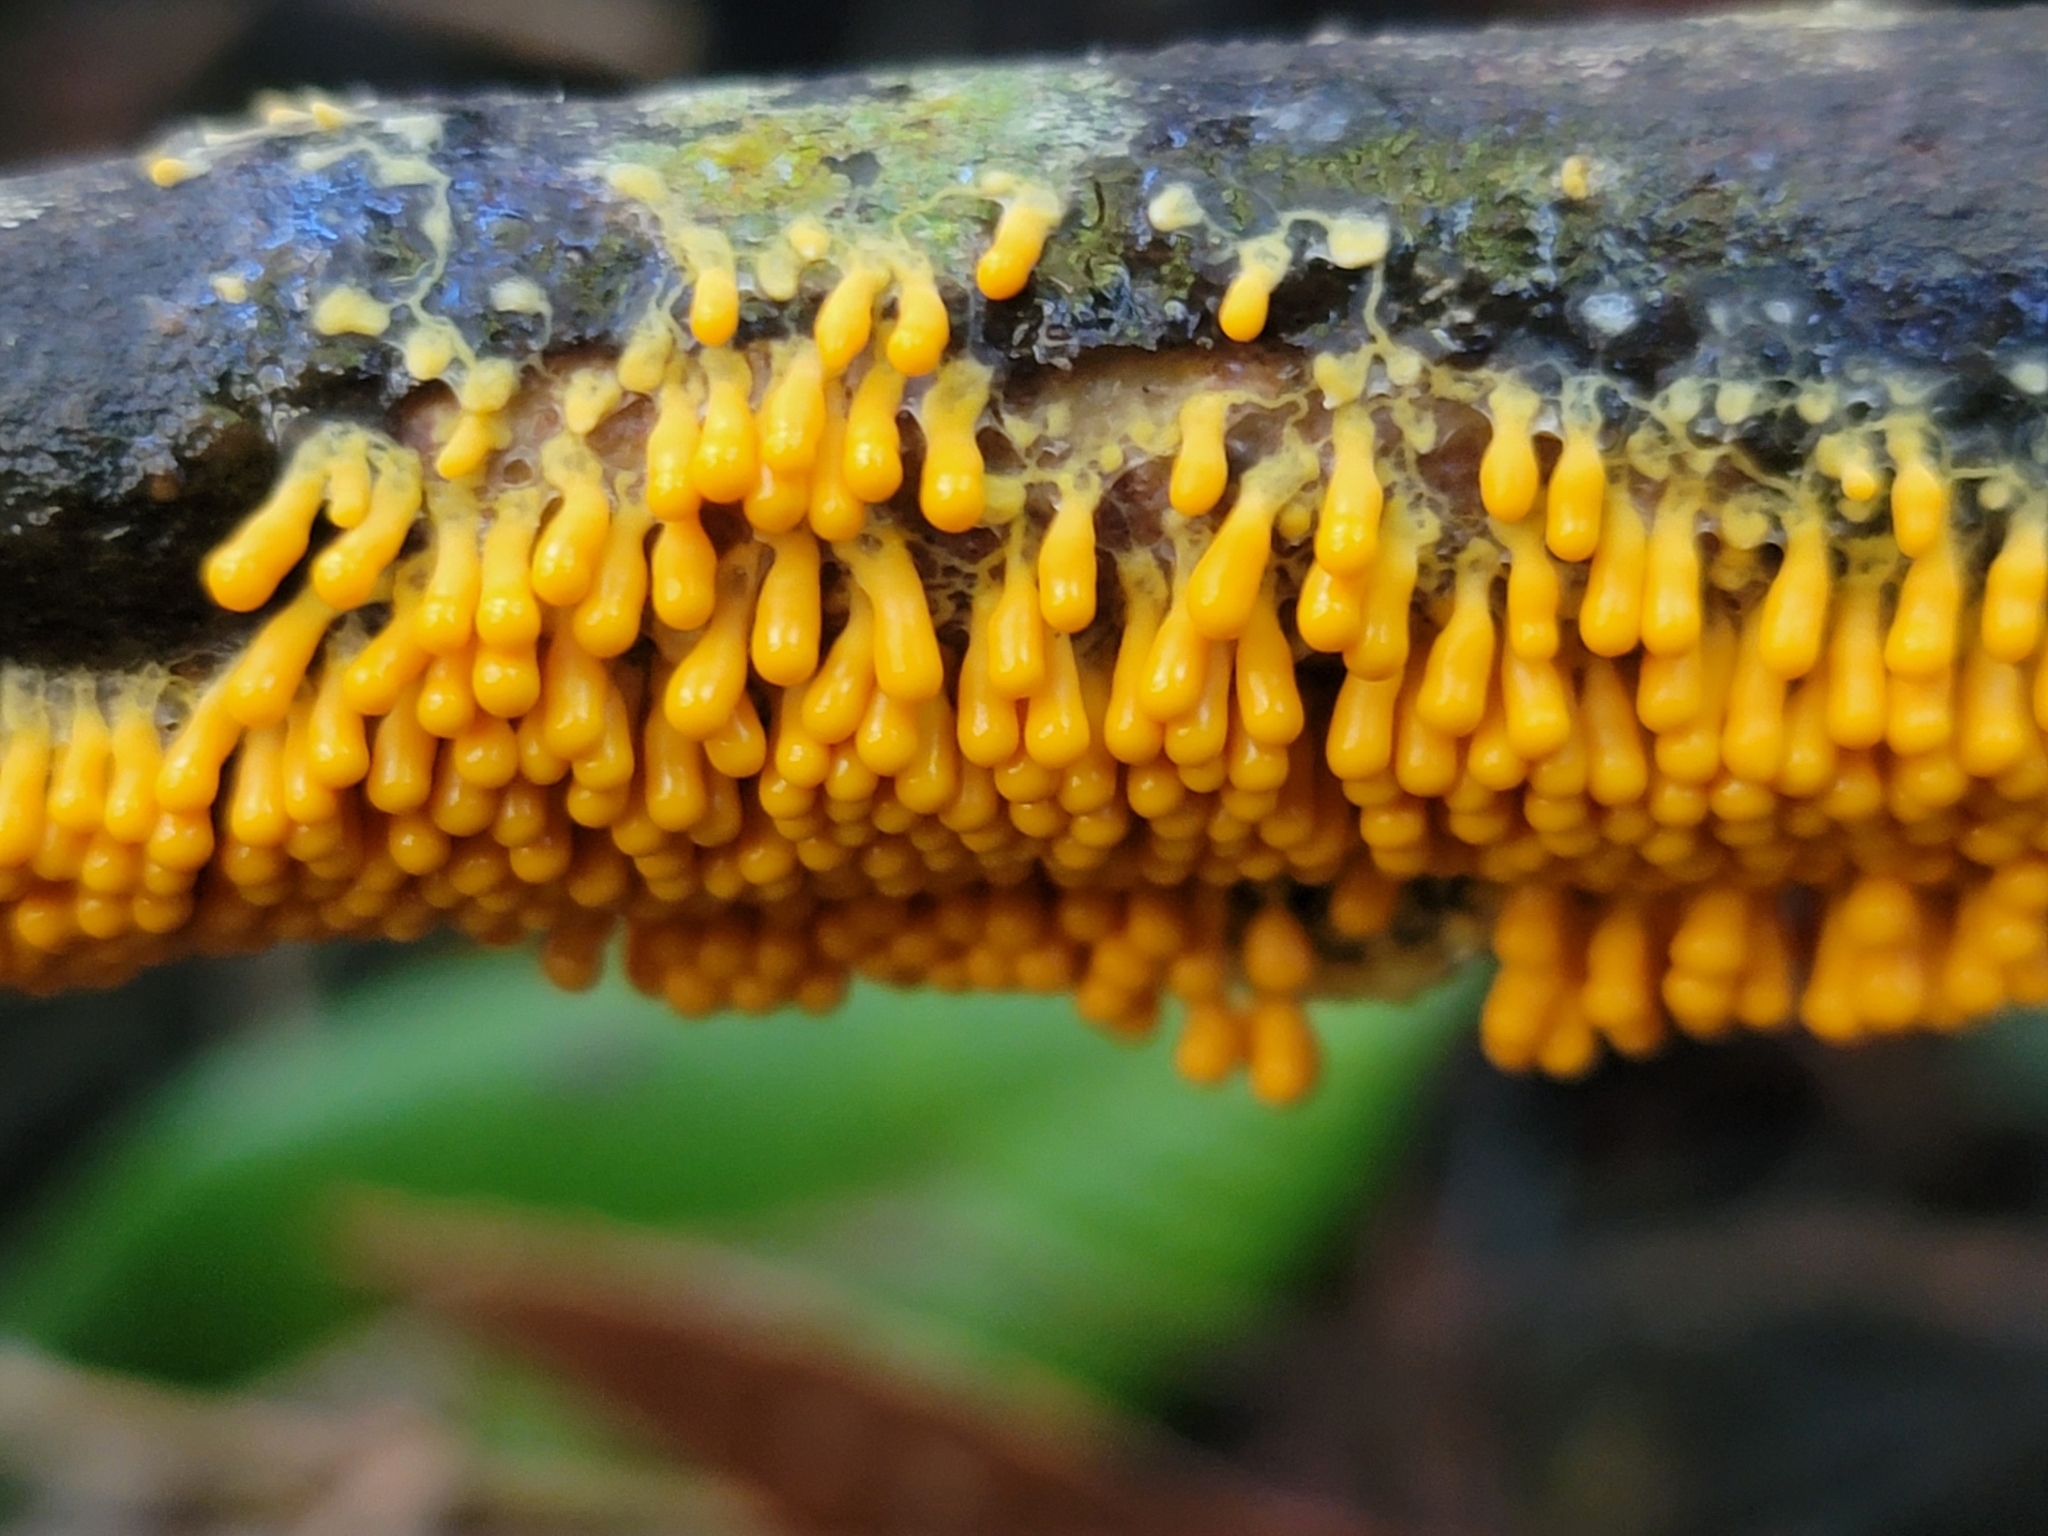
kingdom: Protozoa
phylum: Mycetozoa
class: Myxomycetes
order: Physarales
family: Physaraceae
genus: Leocarpus
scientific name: Leocarpus fragilis
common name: Insect-egg slime
